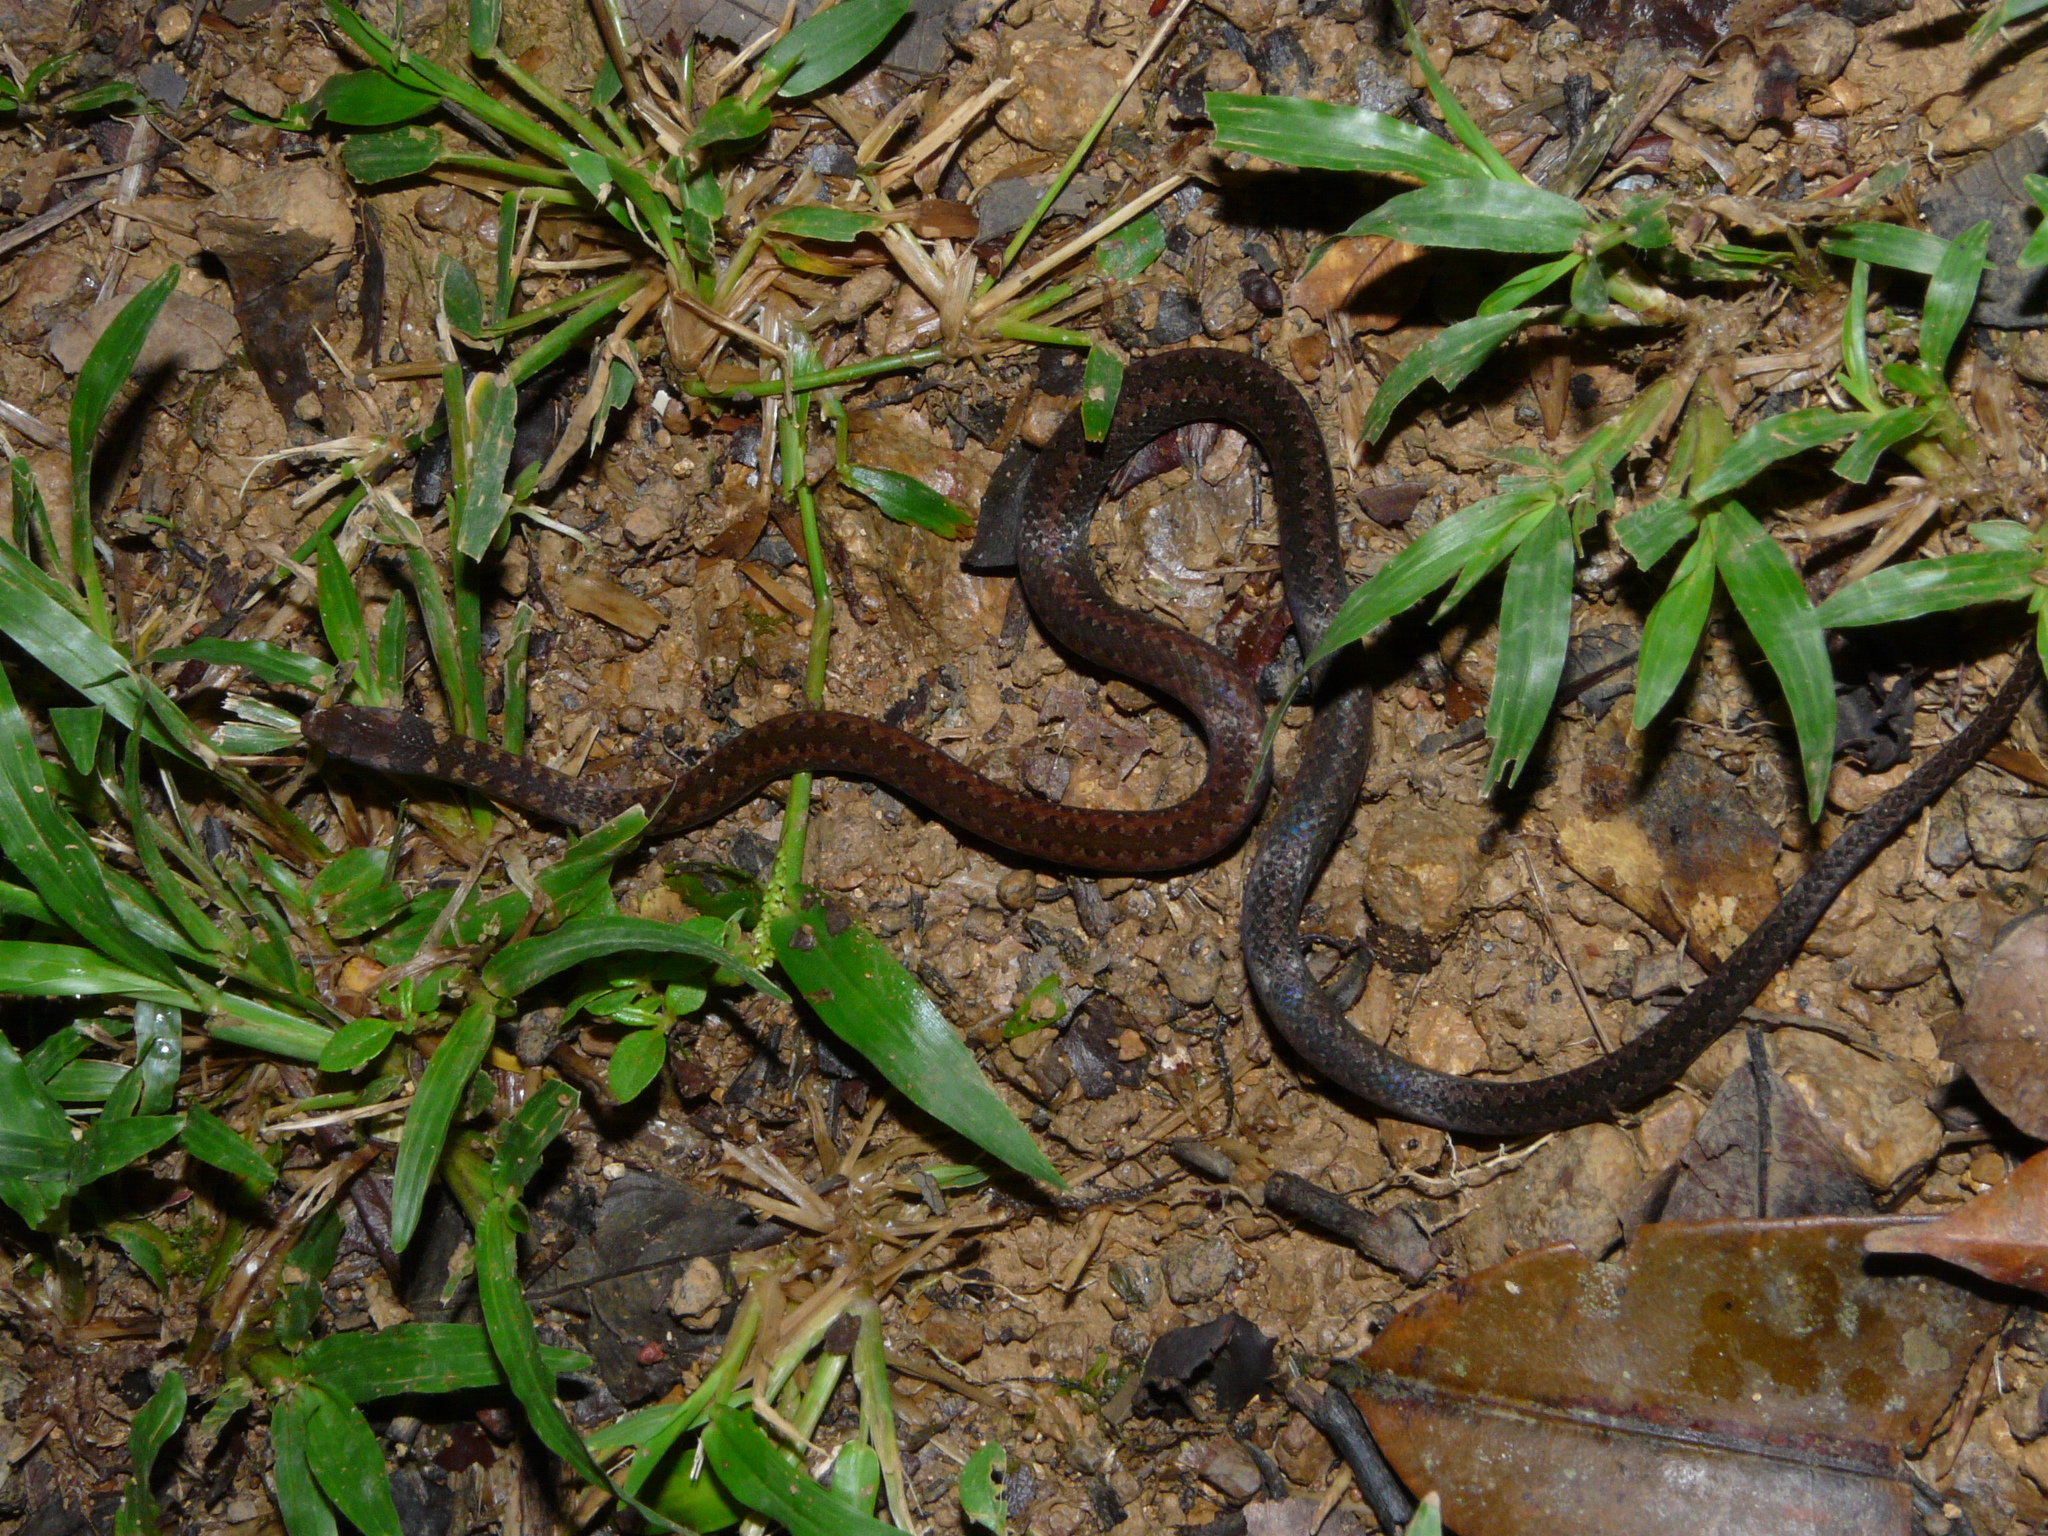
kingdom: Animalia
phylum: Chordata
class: Squamata
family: Colubridae
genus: Taeniophallus
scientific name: Taeniophallus nicagus
